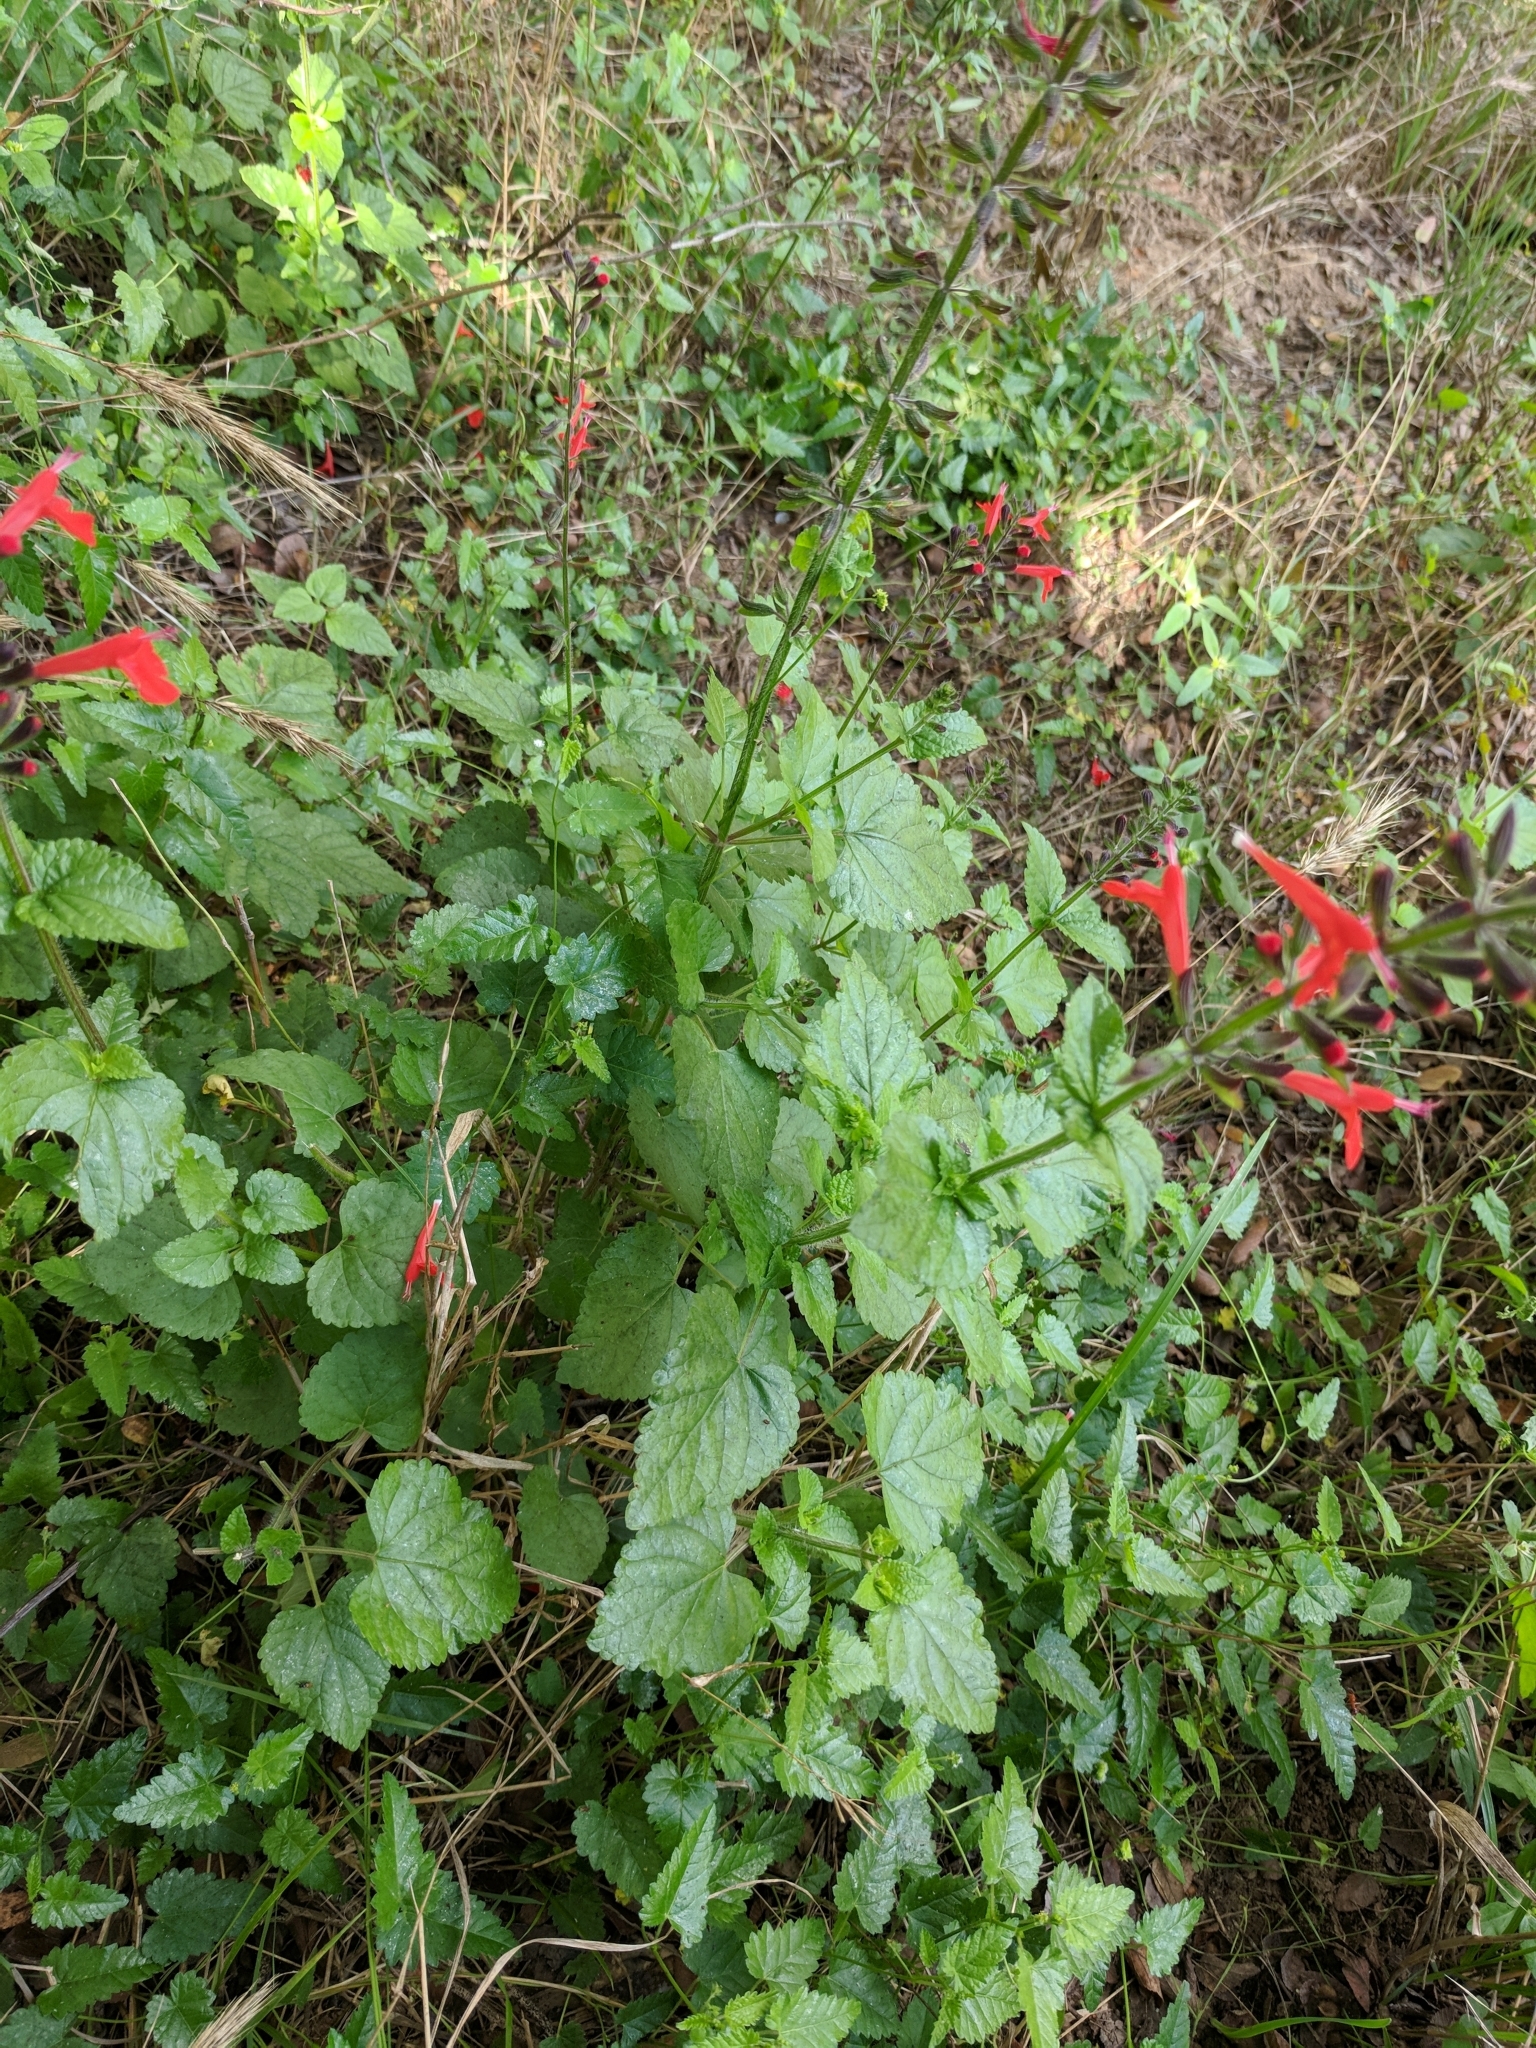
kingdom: Plantae
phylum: Tracheophyta
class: Magnoliopsida
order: Lamiales
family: Lamiaceae
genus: Salvia
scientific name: Salvia coccinea
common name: Blood sage
